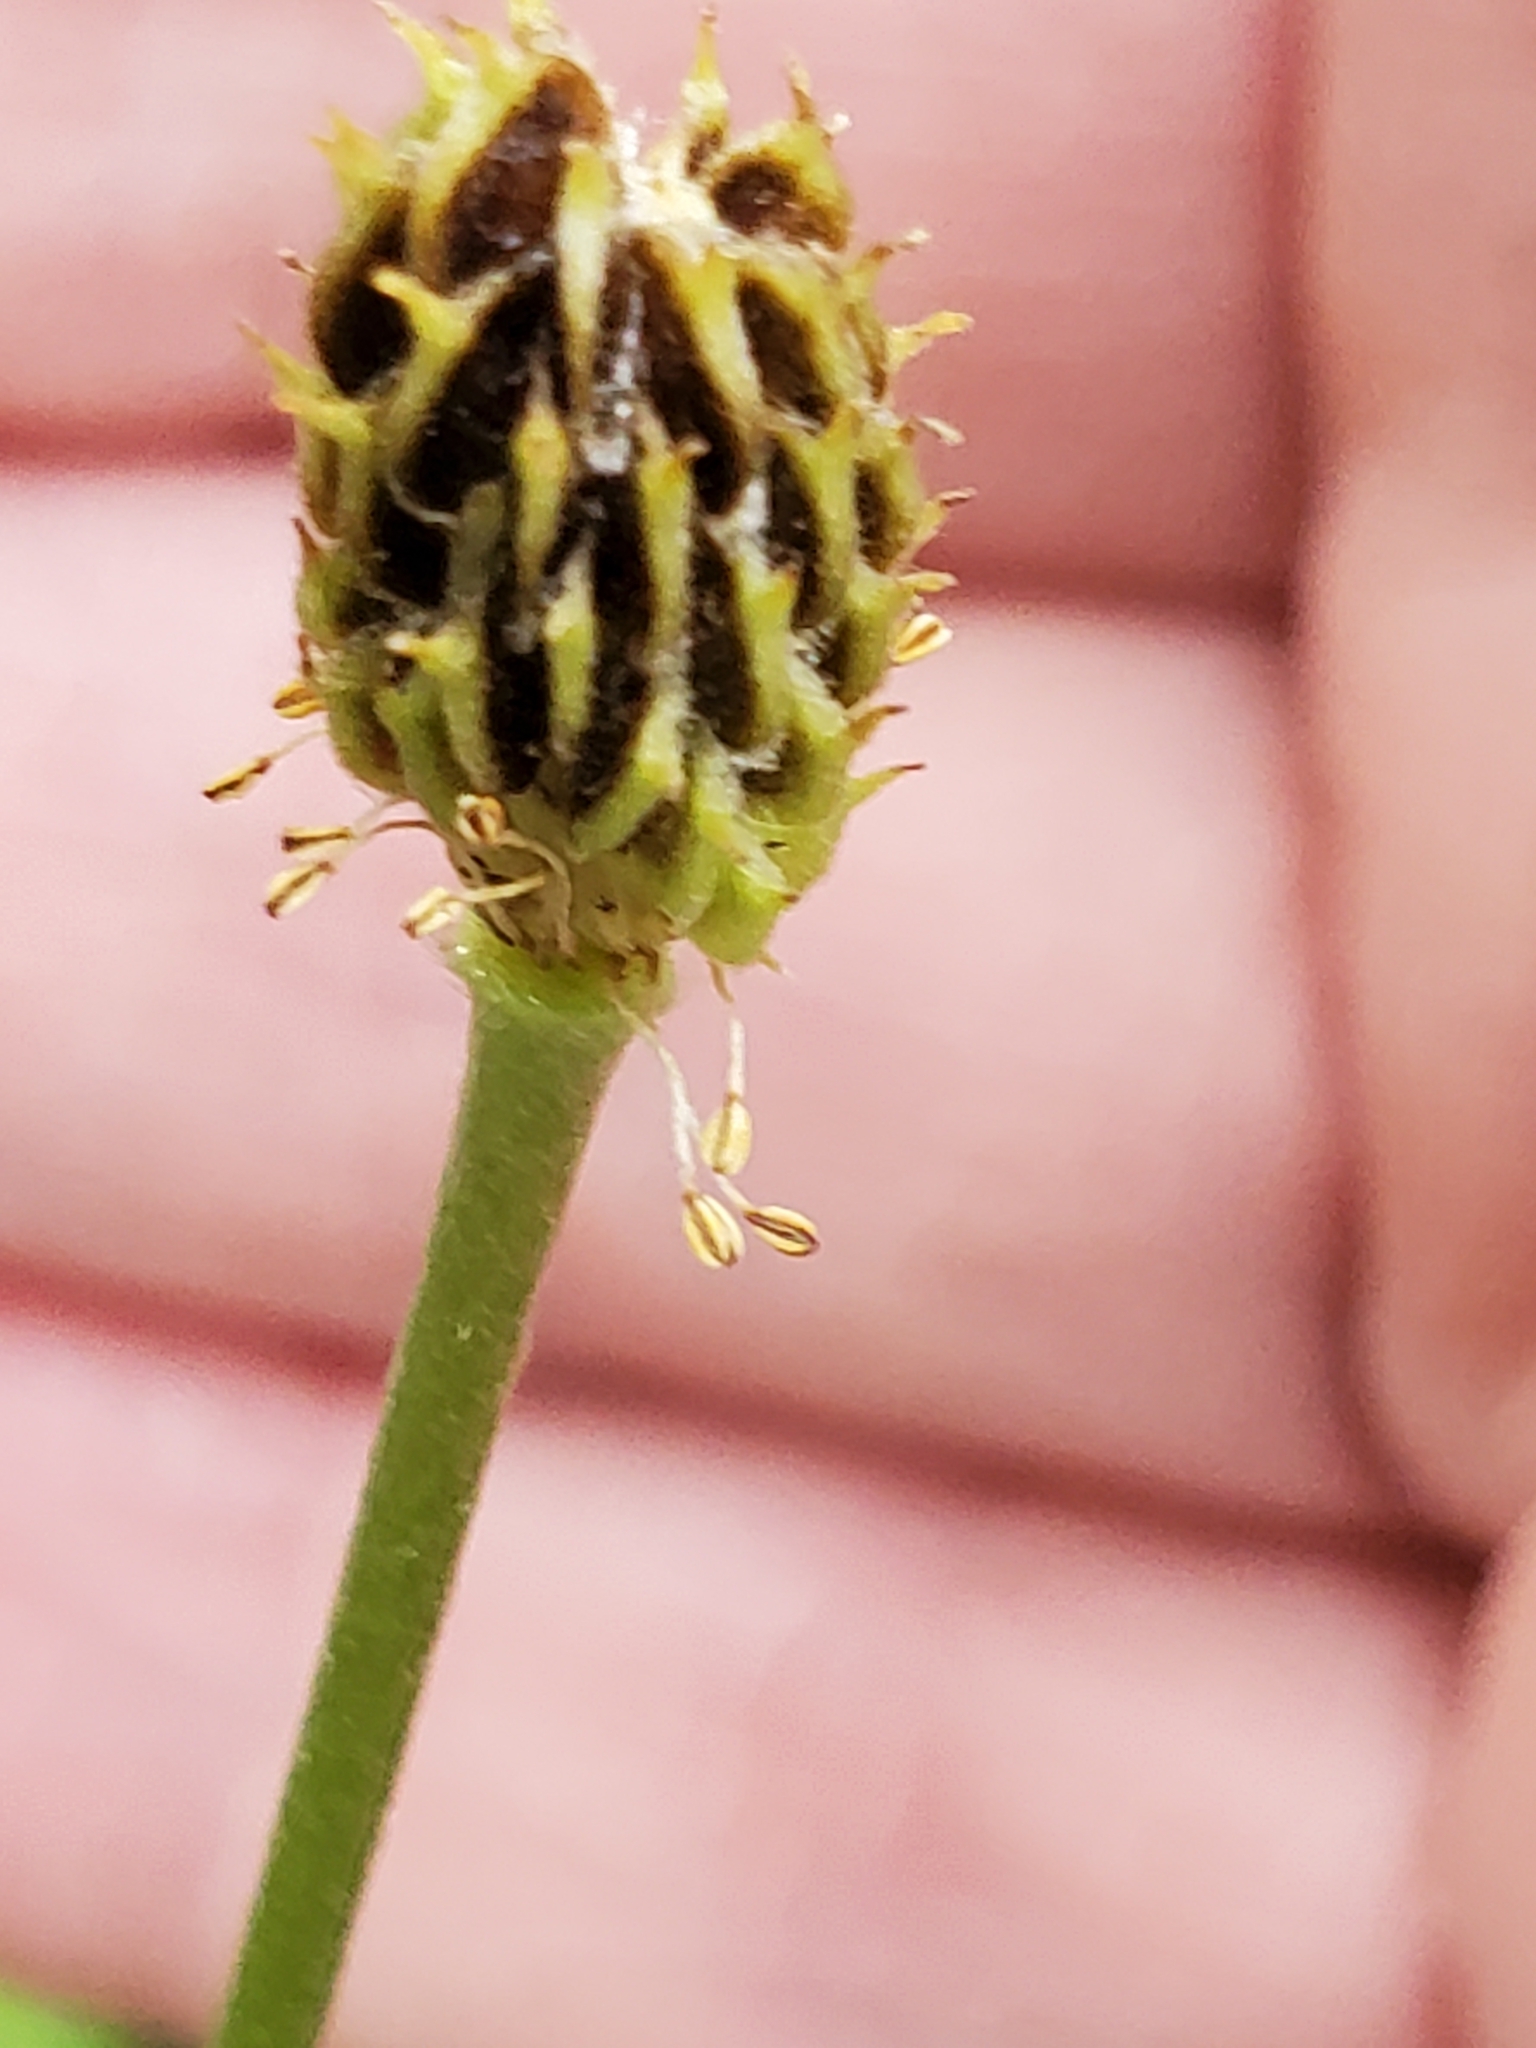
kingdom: Plantae
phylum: Tracheophyta
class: Magnoliopsida
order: Ranunculales
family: Ranunculaceae
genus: Anemone
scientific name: Anemone edwardsiana
